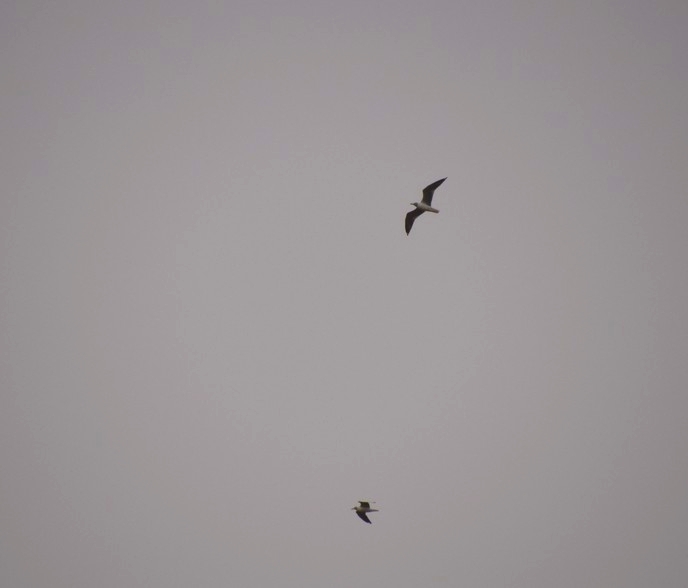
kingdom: Animalia
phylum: Chordata
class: Aves
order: Charadriiformes
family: Laridae
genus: Chroicocephalus
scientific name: Chroicocephalus cirrocephalus
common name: Grey-headed gull
